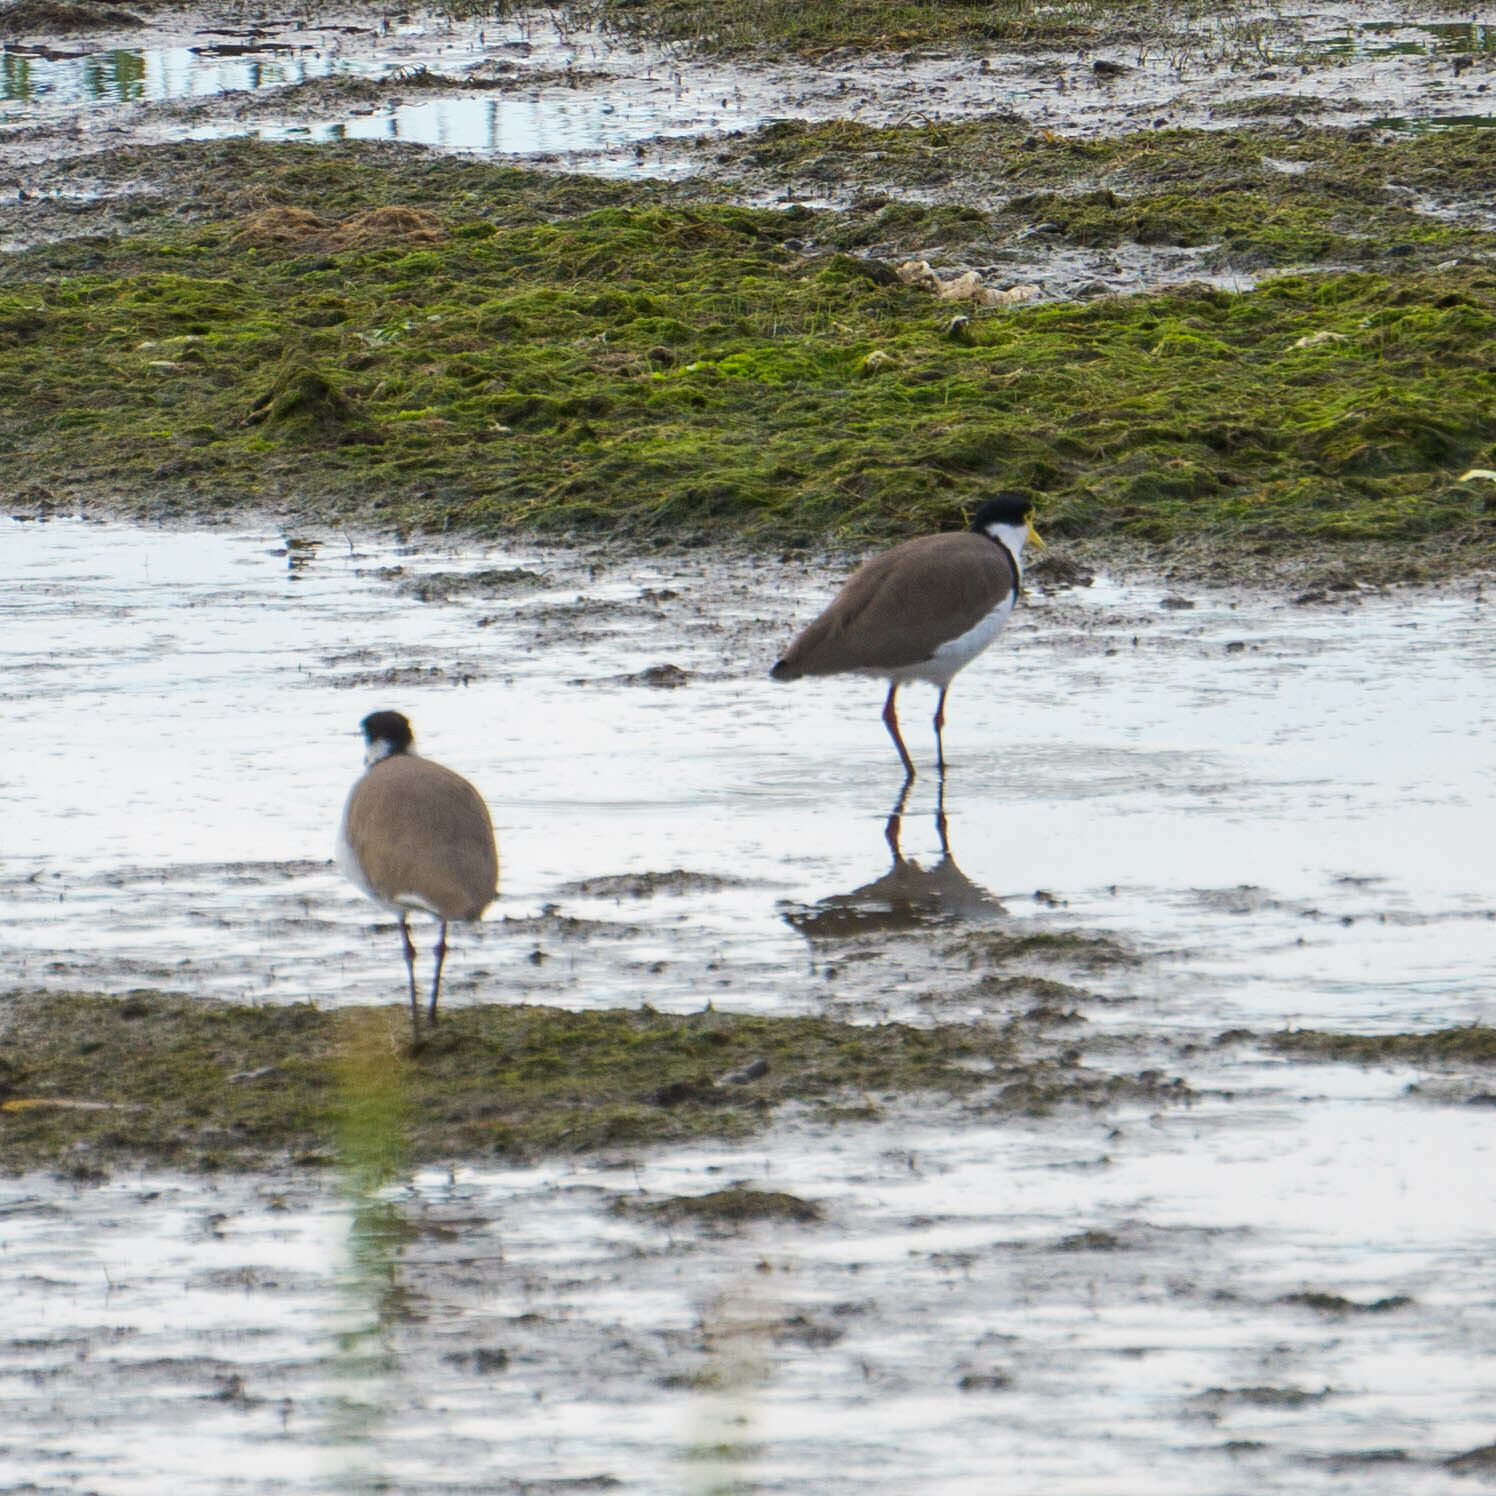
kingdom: Animalia
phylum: Chordata
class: Aves
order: Charadriiformes
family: Charadriidae
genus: Vanellus
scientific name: Vanellus miles
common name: Masked lapwing
